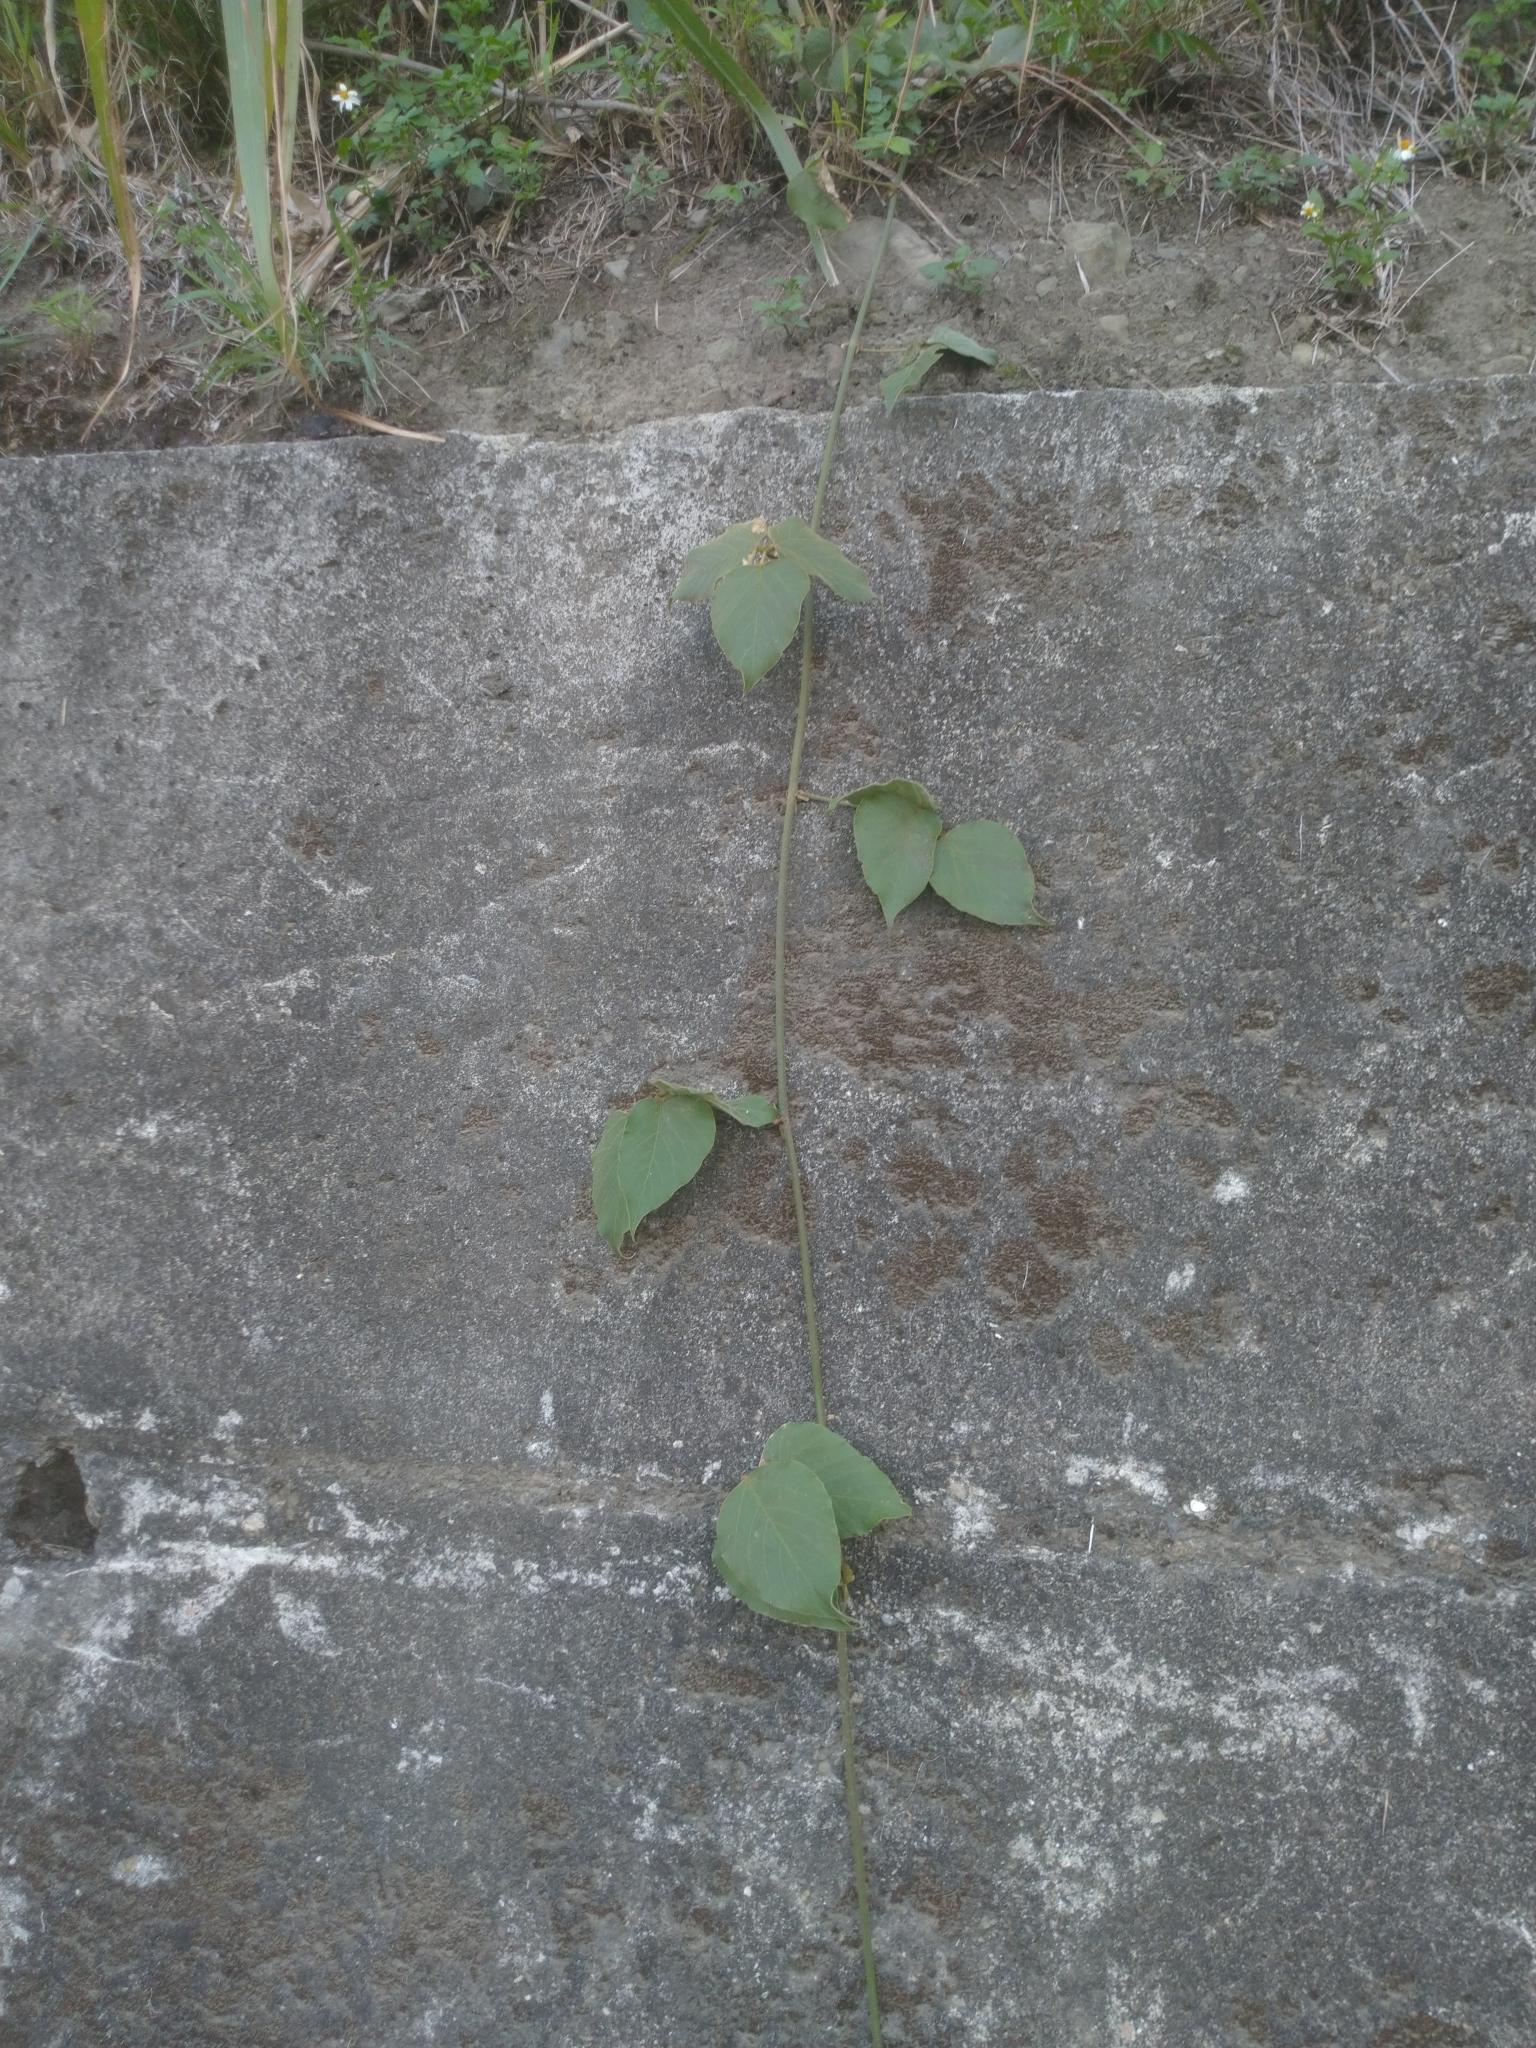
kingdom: Plantae
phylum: Tracheophyta
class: Magnoliopsida
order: Fabales
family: Fabaceae
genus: Pueraria
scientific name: Pueraria montana
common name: Kudzu
